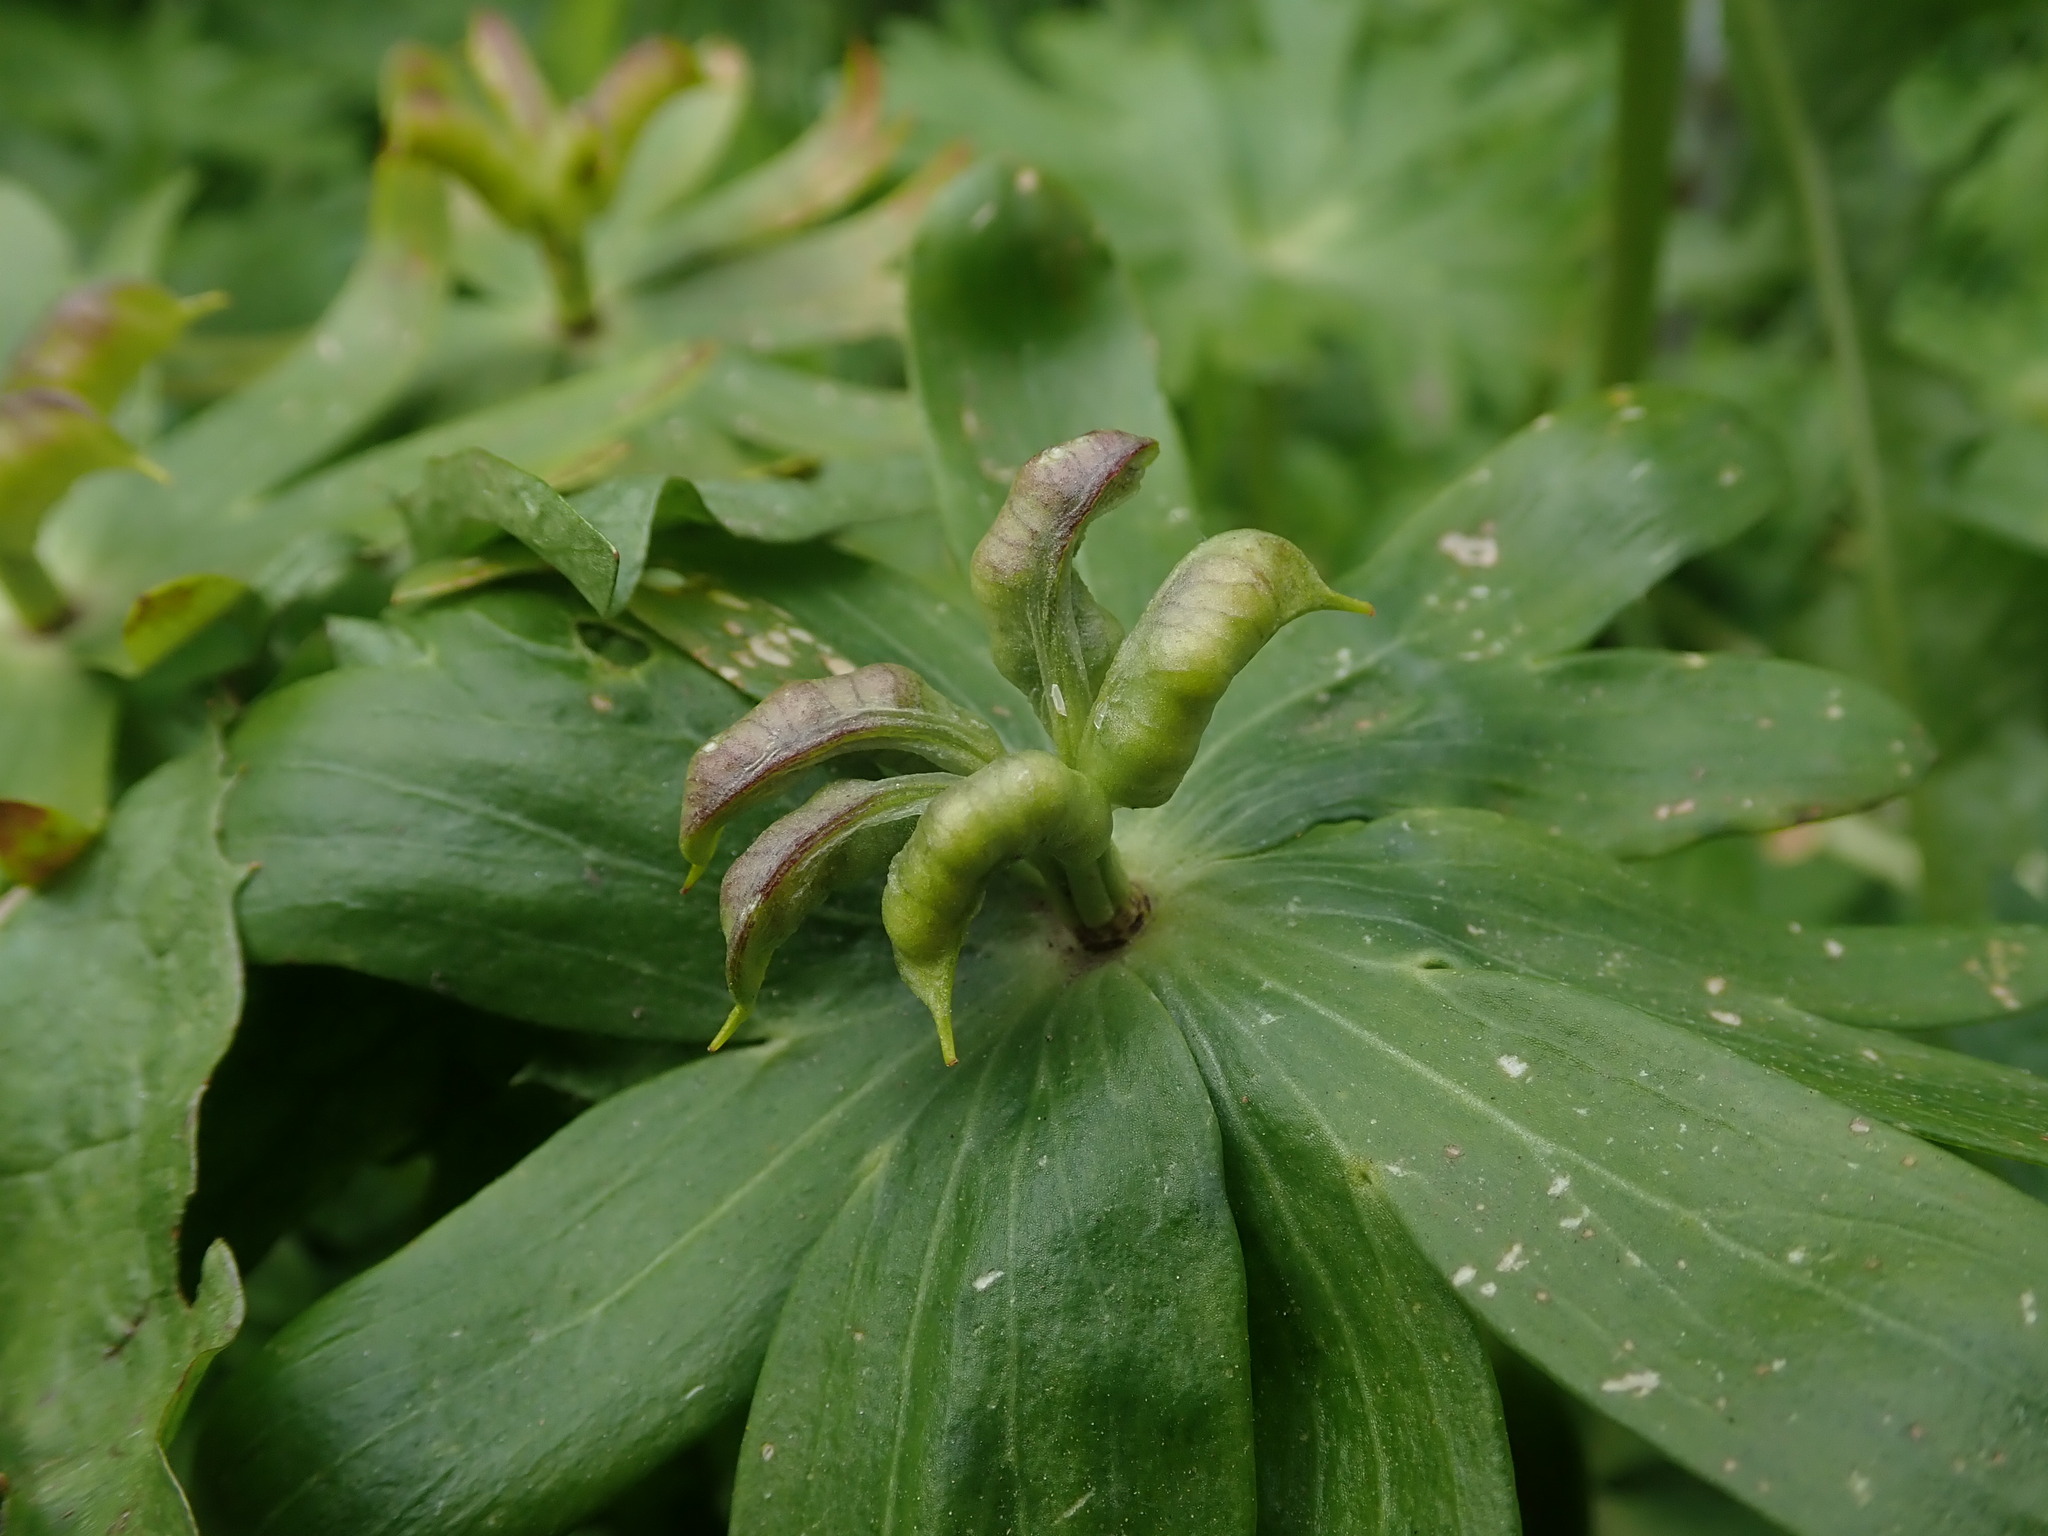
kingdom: Plantae
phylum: Tracheophyta
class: Magnoliopsida
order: Ranunculales
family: Ranunculaceae
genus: Eranthis
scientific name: Eranthis hyemalis
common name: Winter aconite
